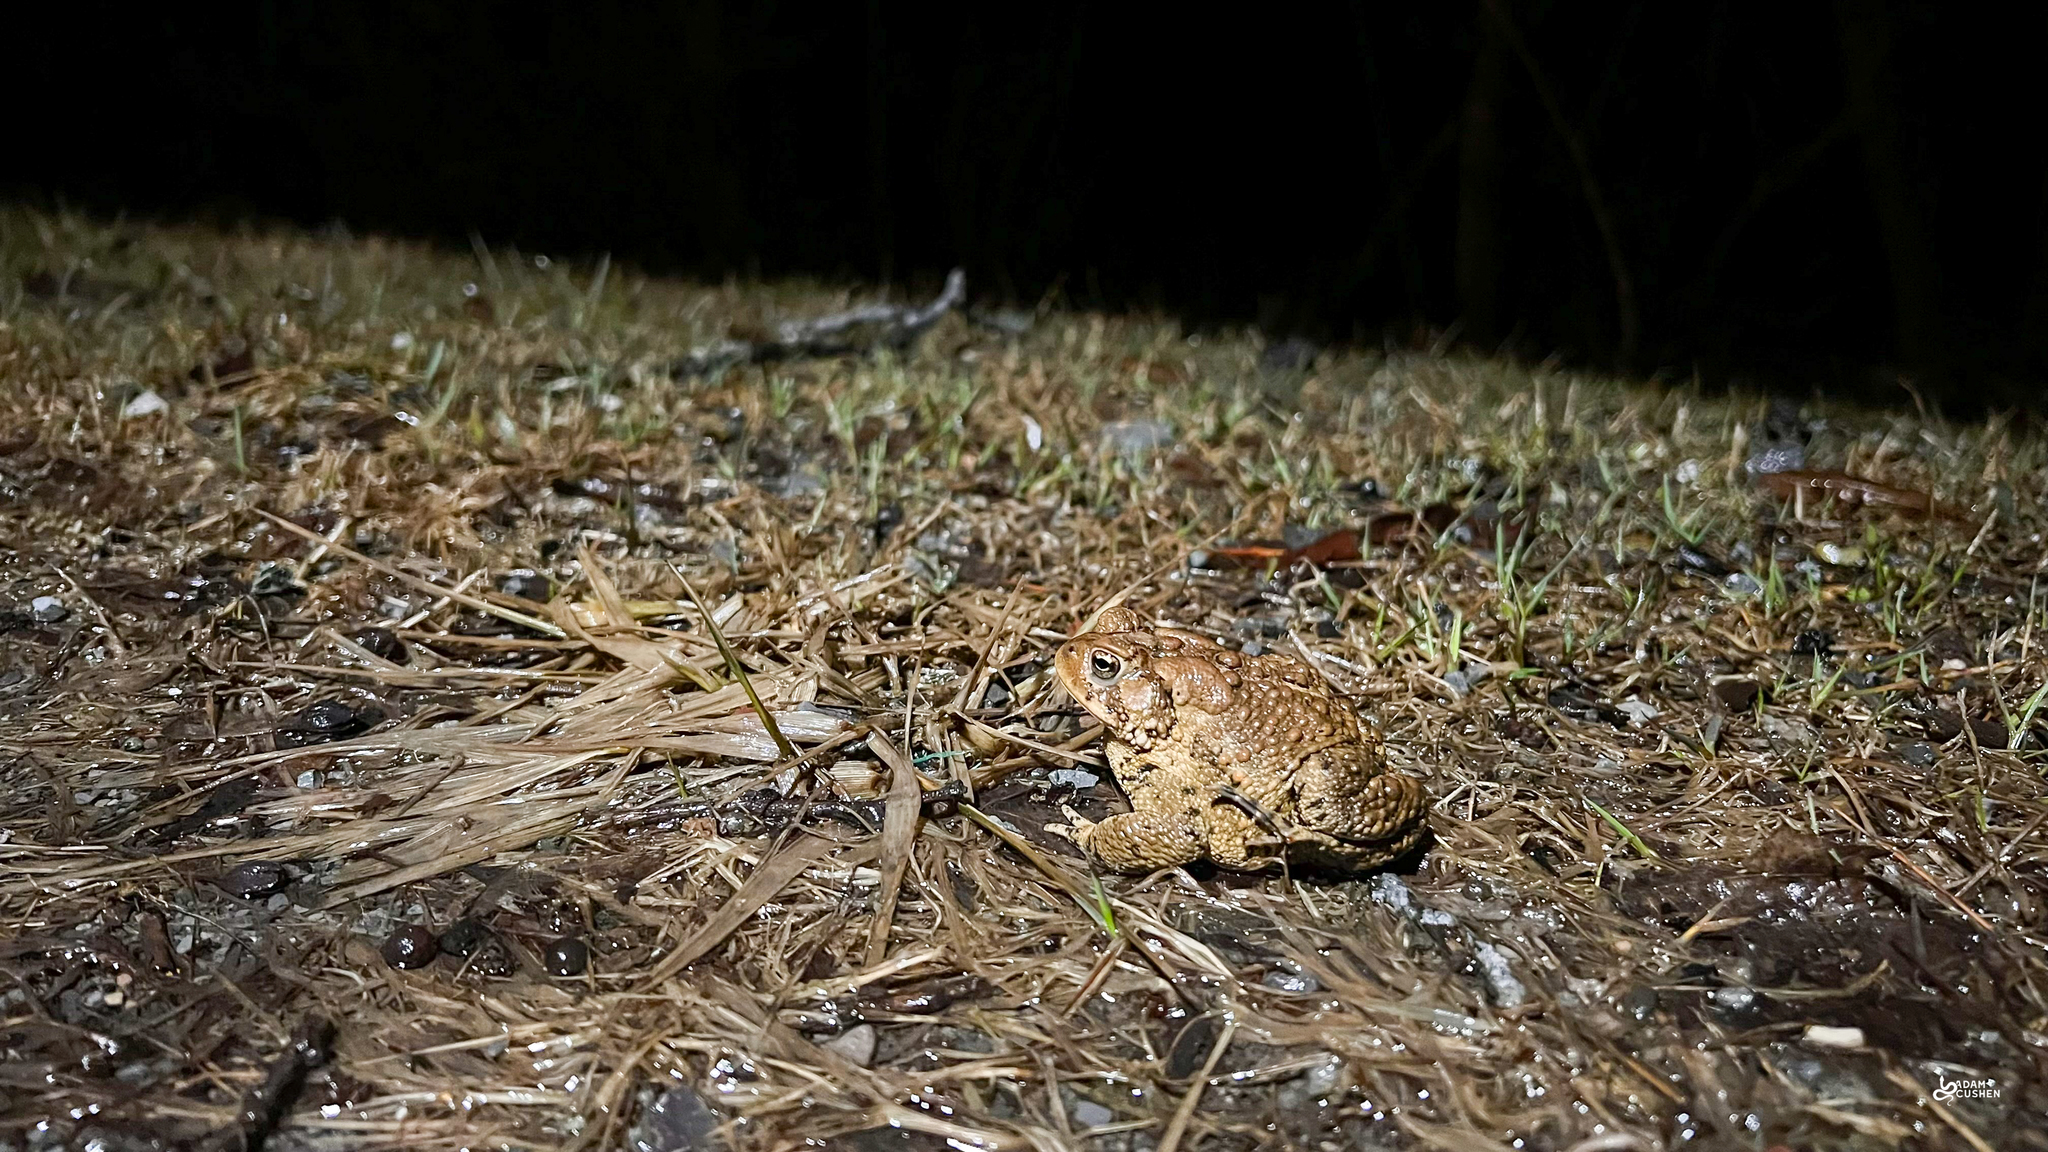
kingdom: Animalia
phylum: Chordata
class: Amphibia
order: Anura
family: Bufonidae
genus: Anaxyrus
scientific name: Anaxyrus americanus
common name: American toad
